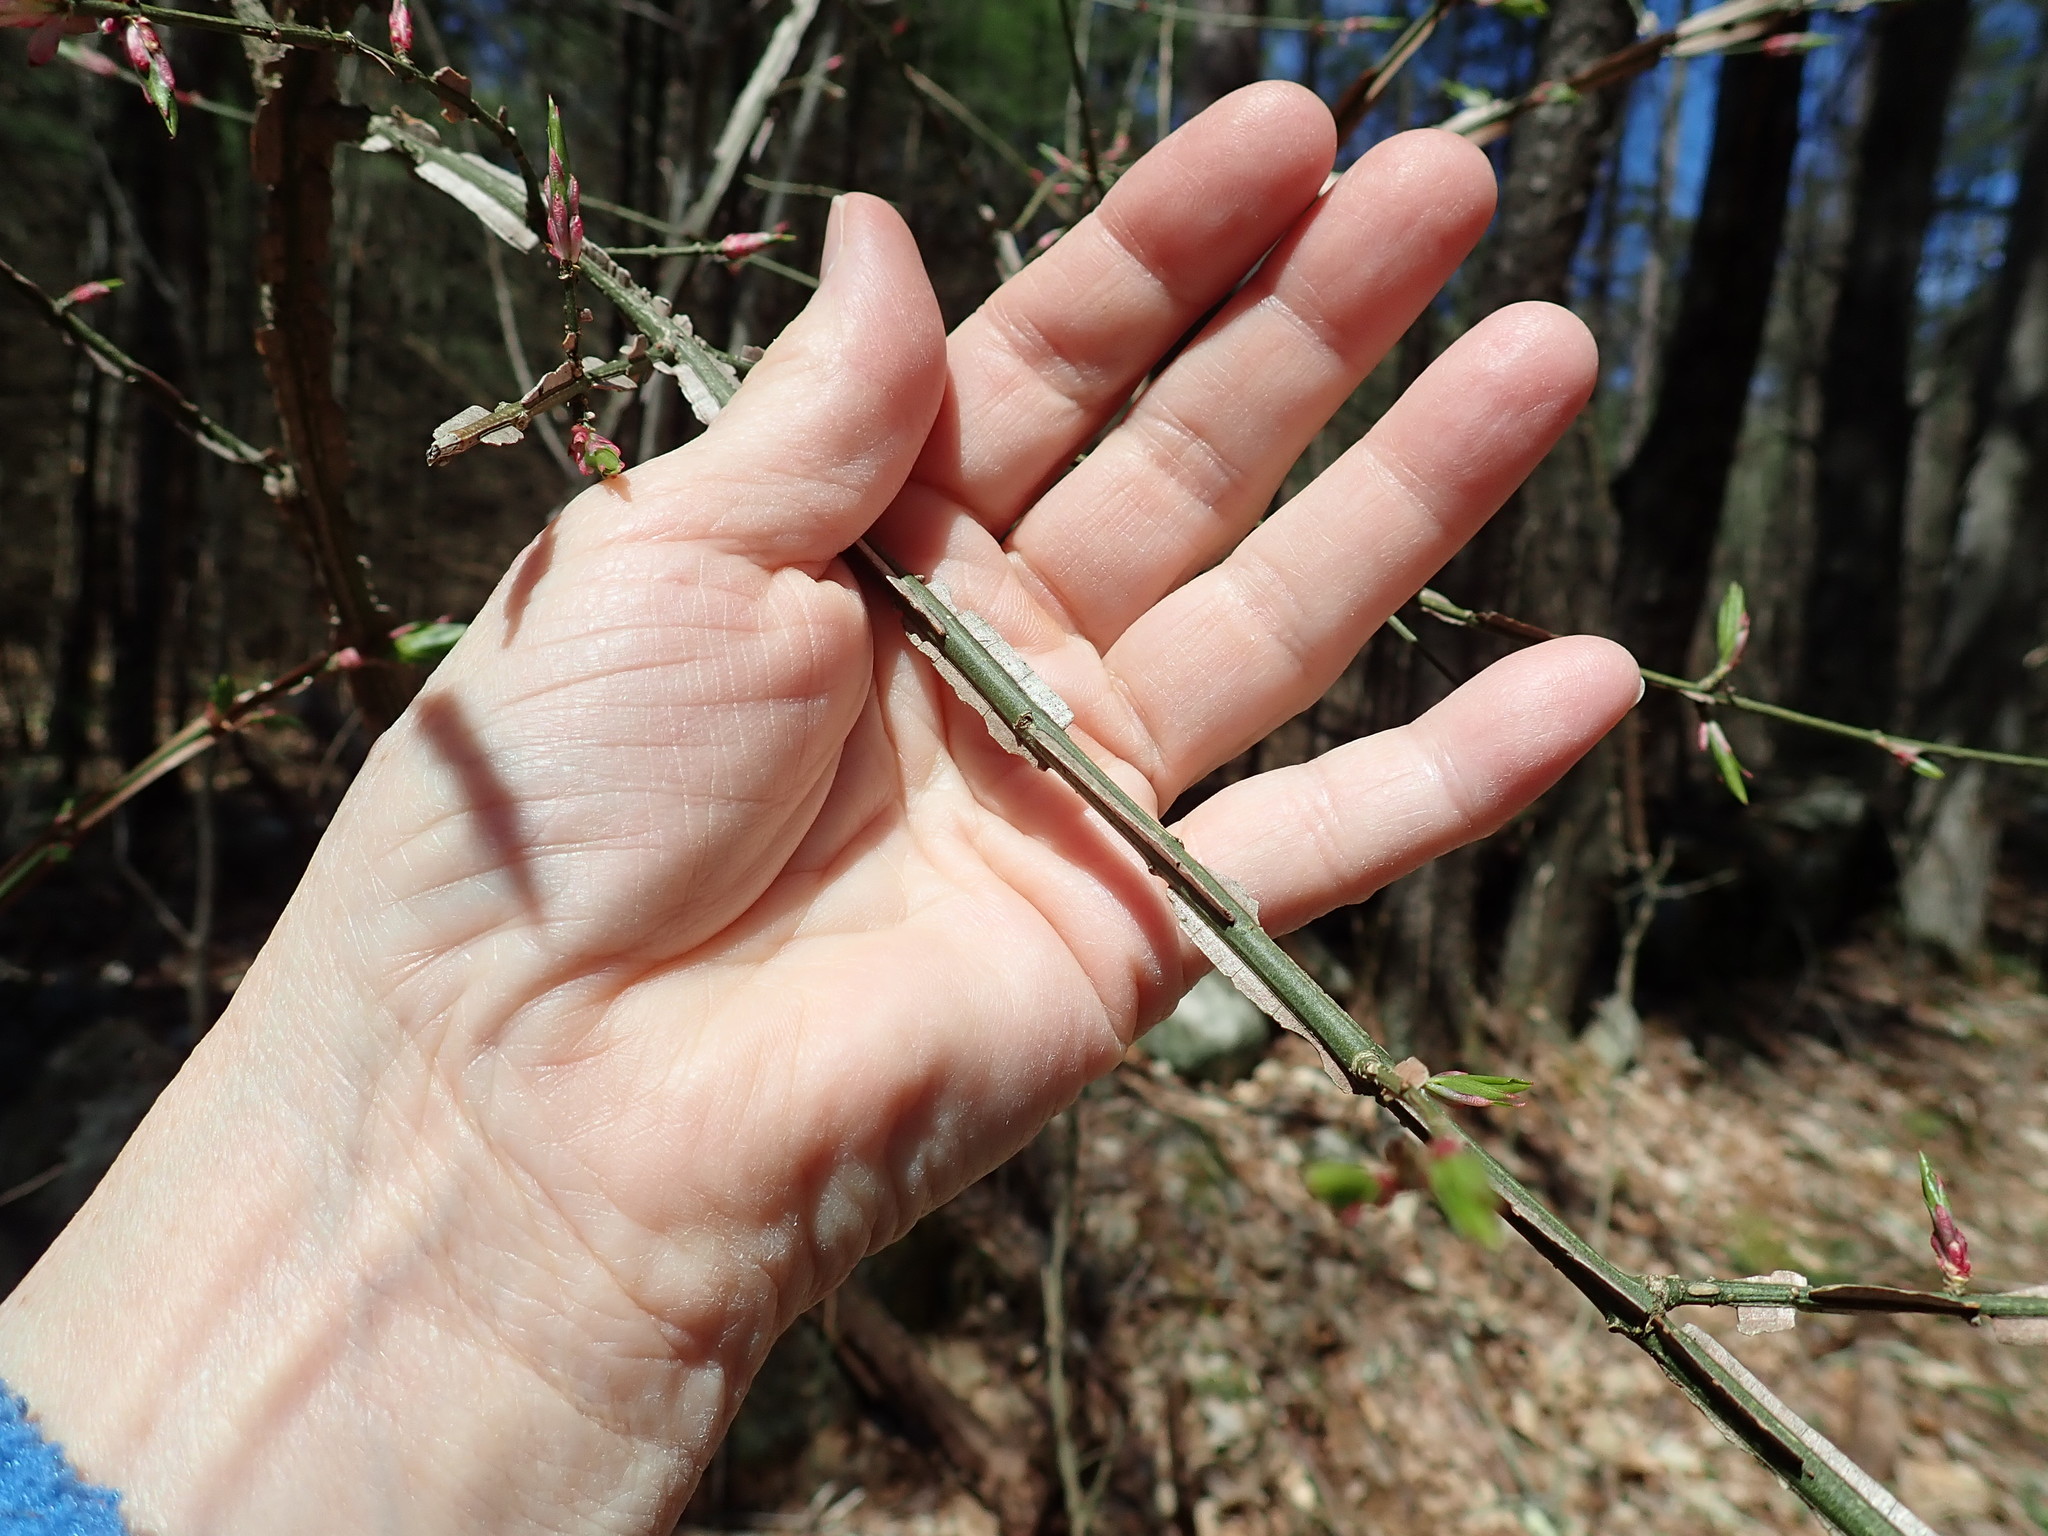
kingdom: Plantae
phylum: Tracheophyta
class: Magnoliopsida
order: Celastrales
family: Celastraceae
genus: Euonymus
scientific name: Euonymus alatus
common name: Winged euonymus
